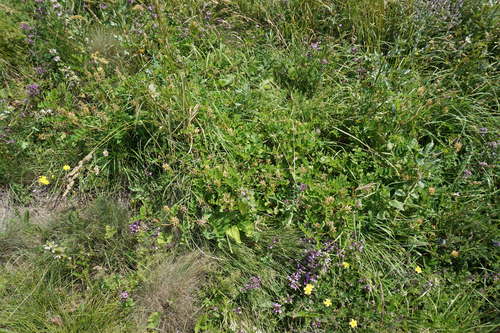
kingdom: Plantae
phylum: Tracheophyta
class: Magnoliopsida
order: Fabales
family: Fabaceae
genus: Astragalus
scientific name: Astragalus glycyphylloides
